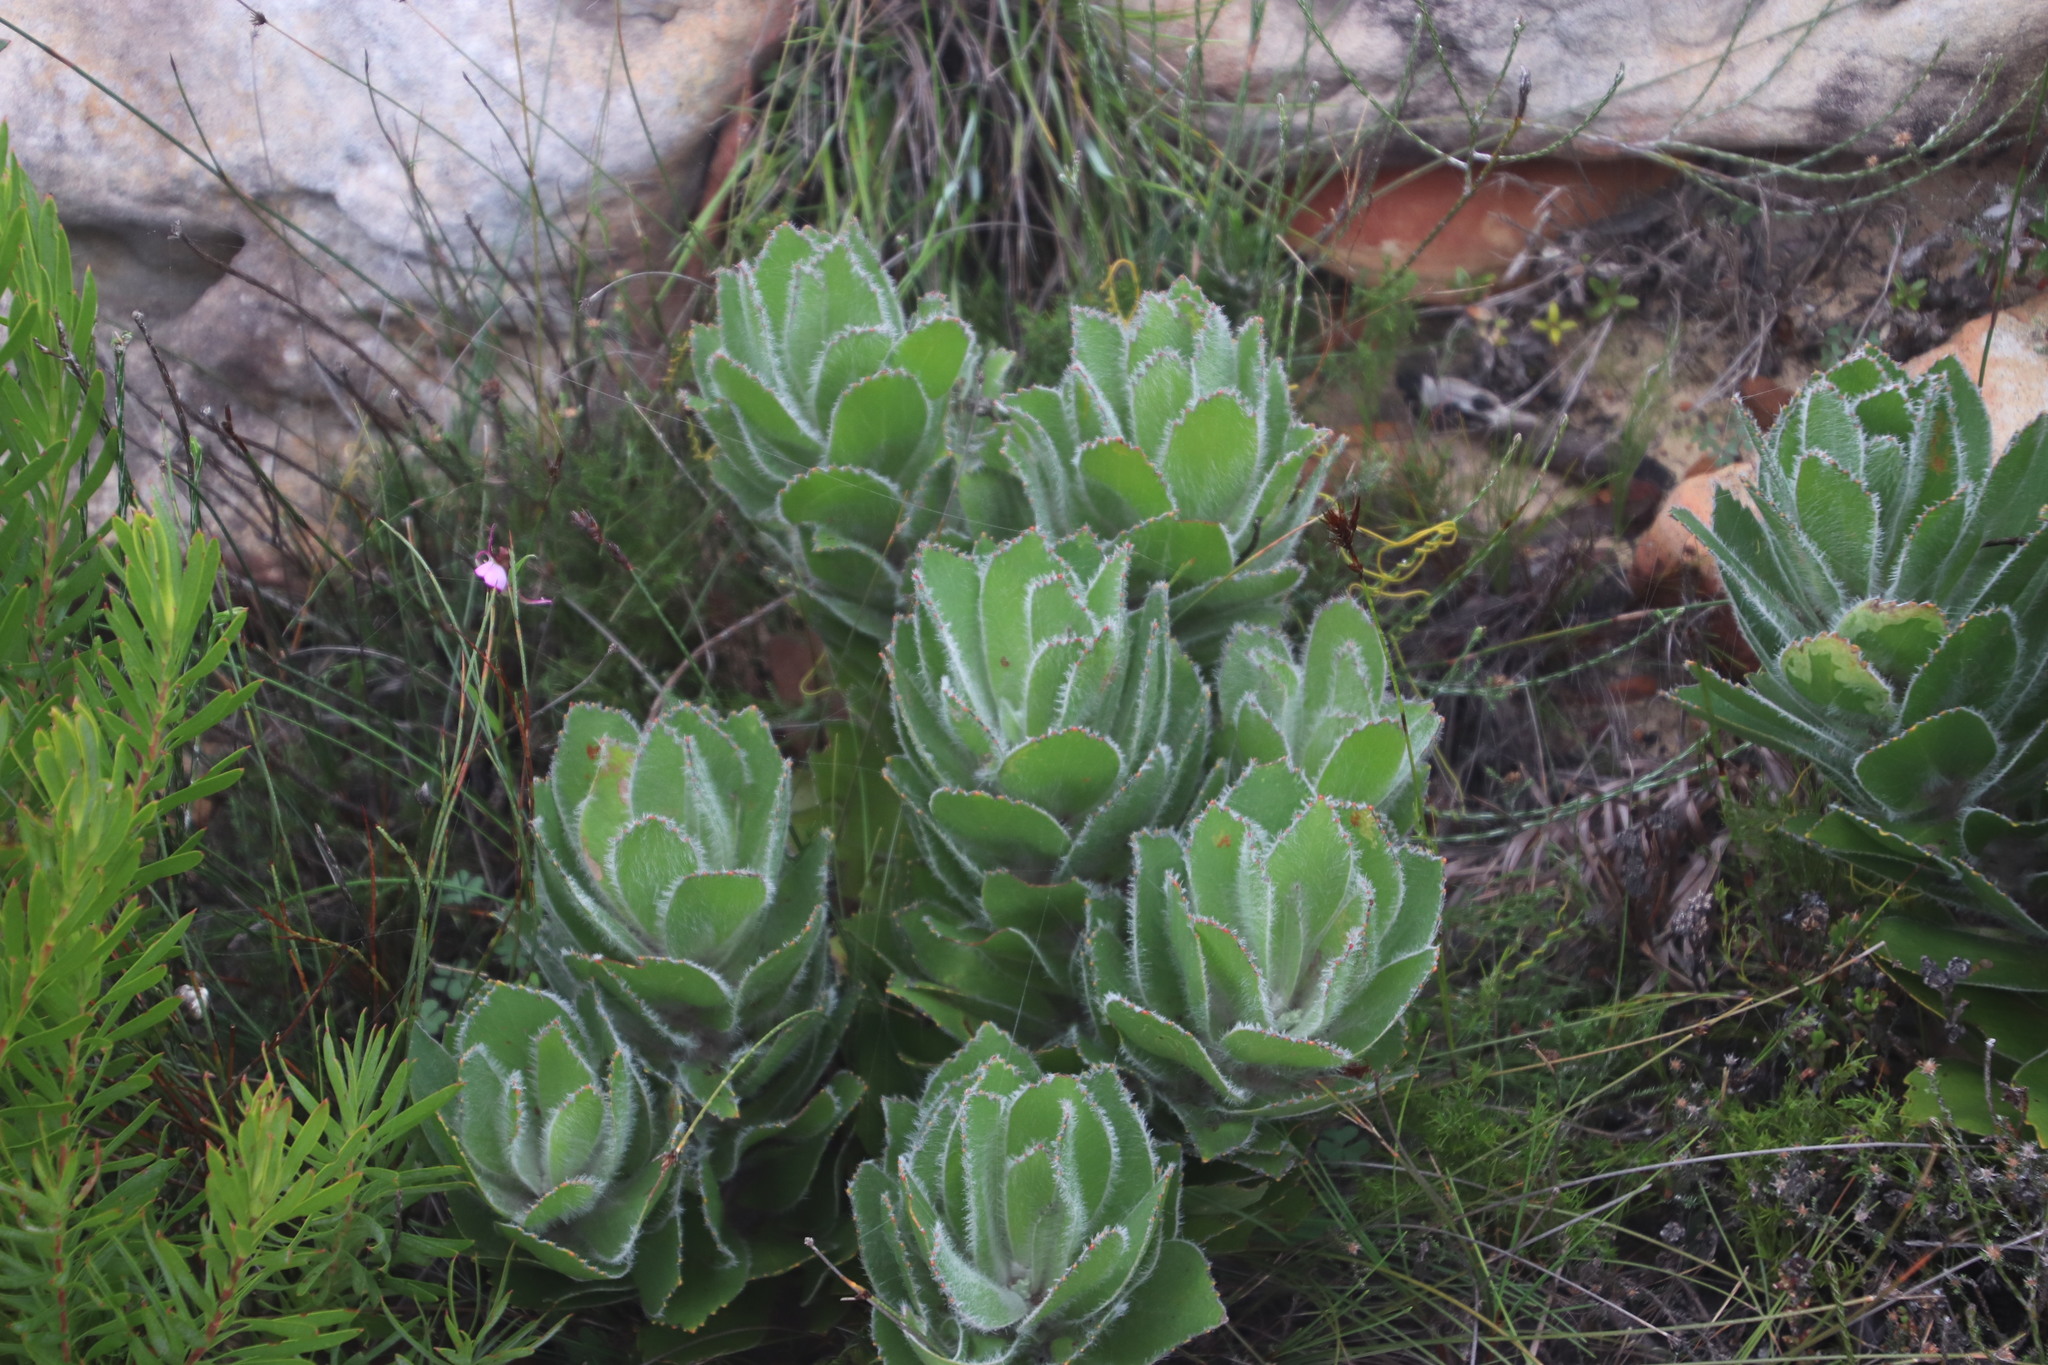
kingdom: Plantae
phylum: Tracheophyta
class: Magnoliopsida
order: Proteales
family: Proteaceae
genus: Leucospermum
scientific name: Leucospermum conocarpodendron
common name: Tree pincushion
